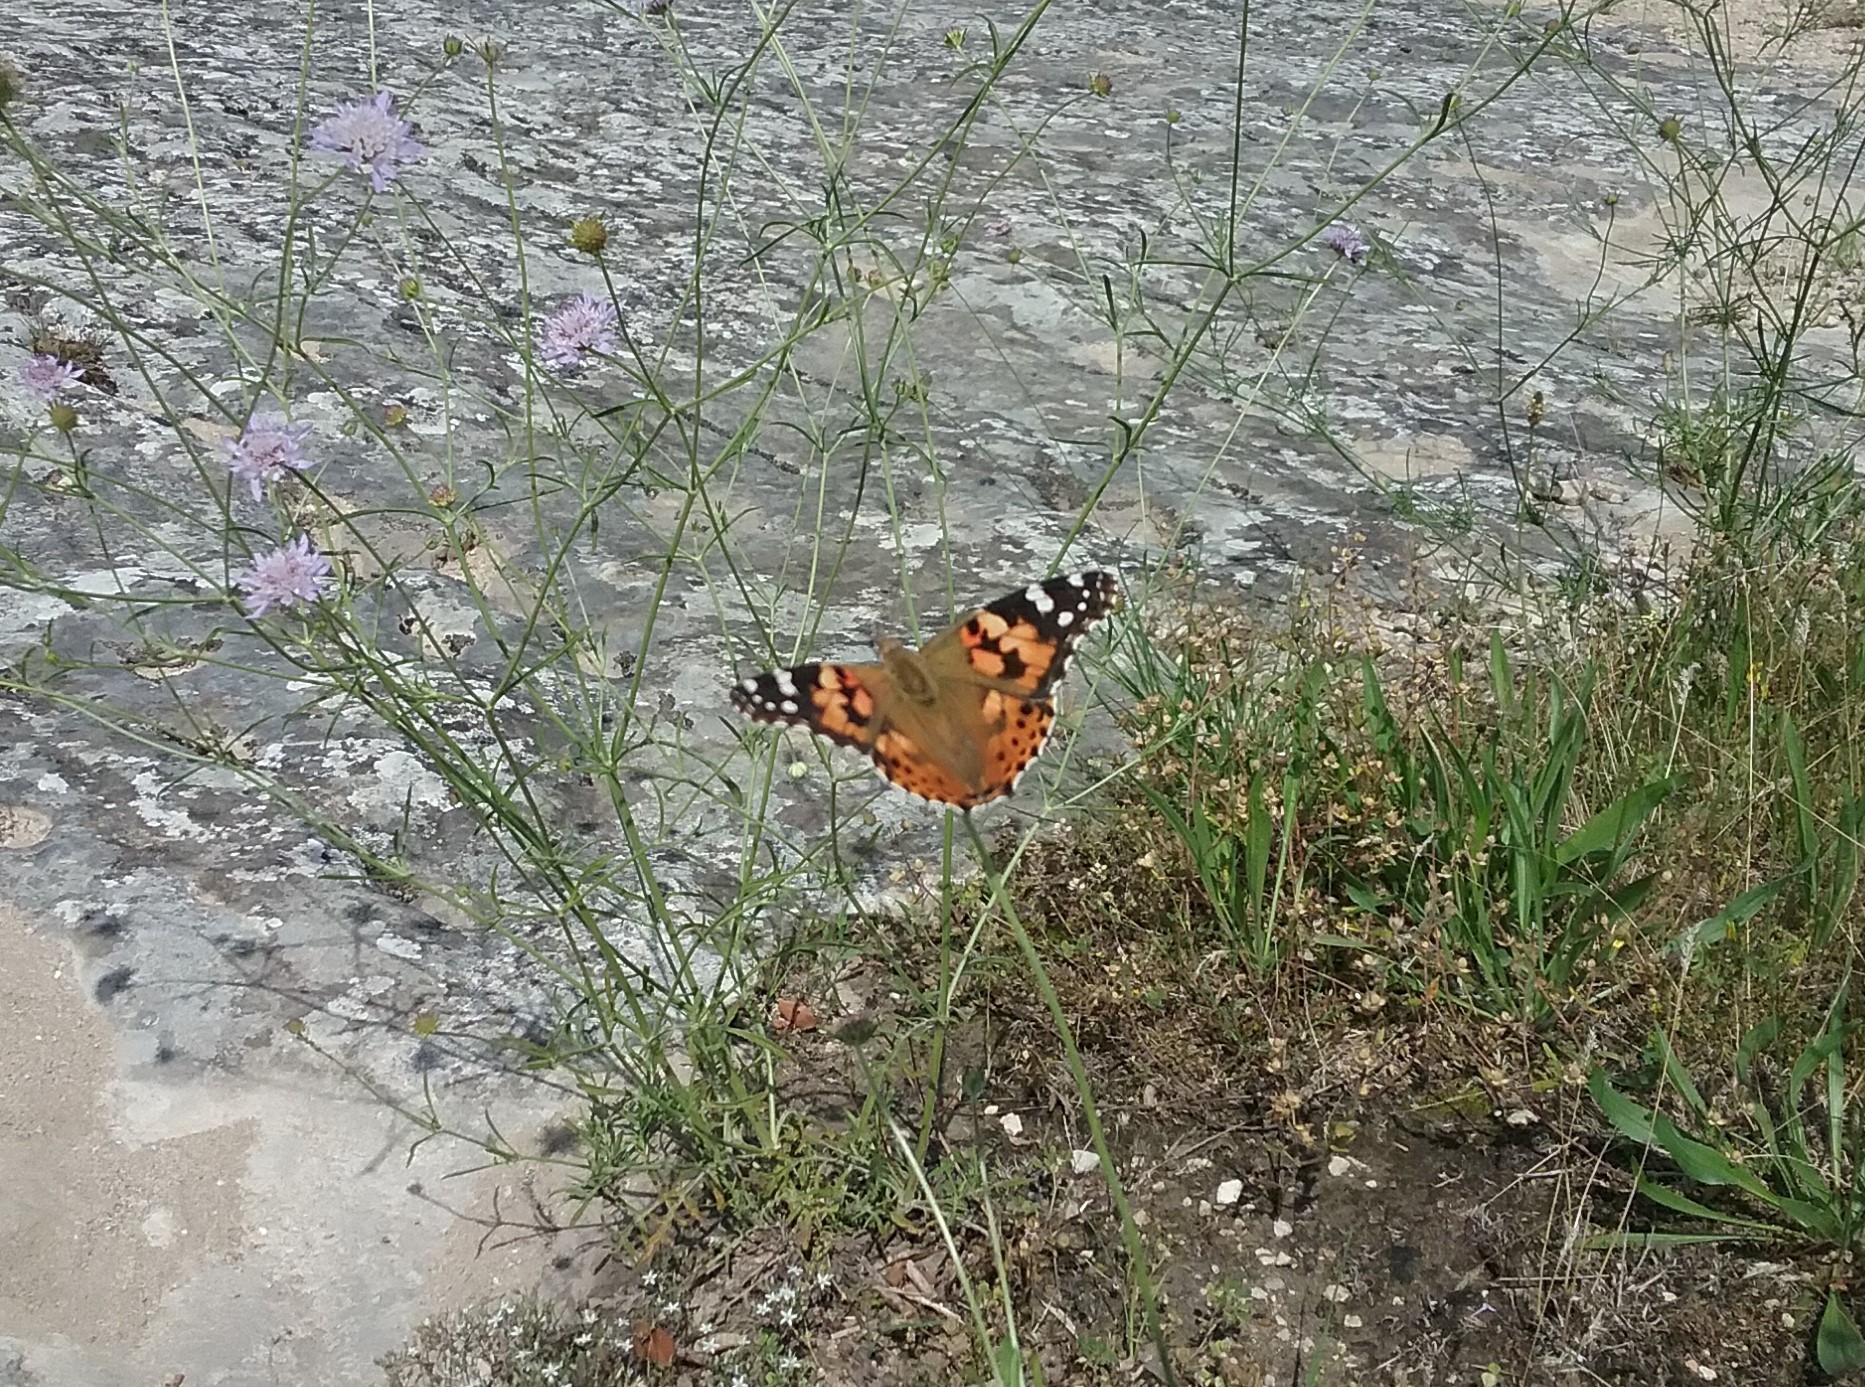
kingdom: Animalia
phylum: Arthropoda
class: Insecta
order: Lepidoptera
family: Nymphalidae
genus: Vanessa
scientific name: Vanessa cardui
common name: Painted lady
